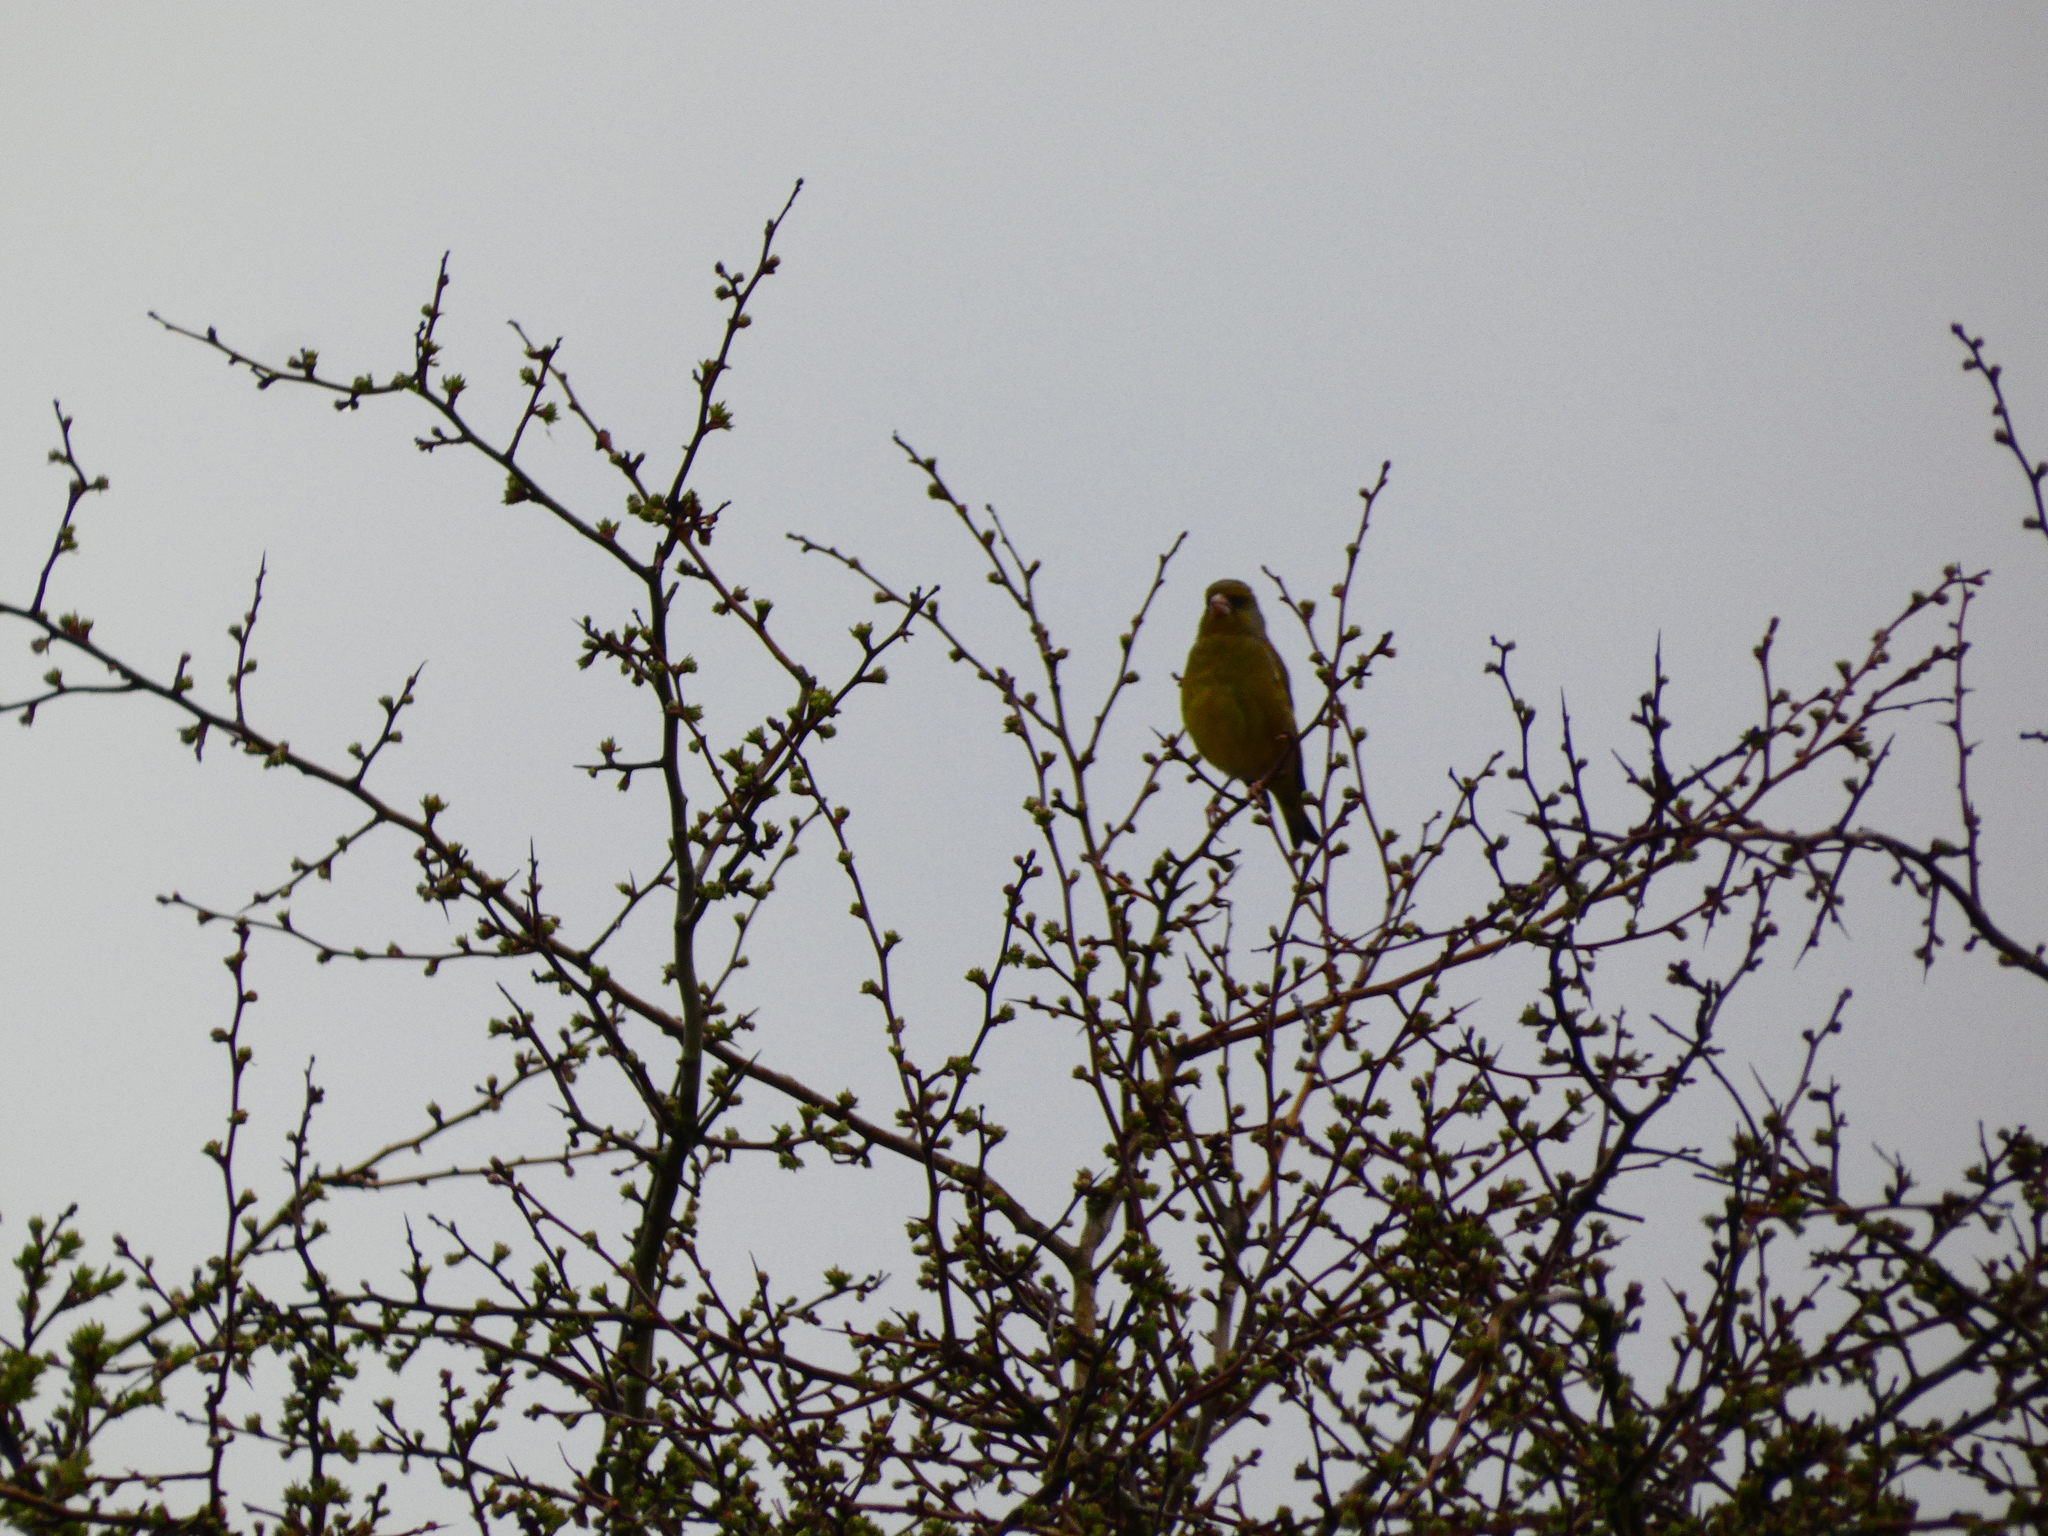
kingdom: Plantae
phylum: Tracheophyta
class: Liliopsida
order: Poales
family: Poaceae
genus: Chloris
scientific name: Chloris chloris
